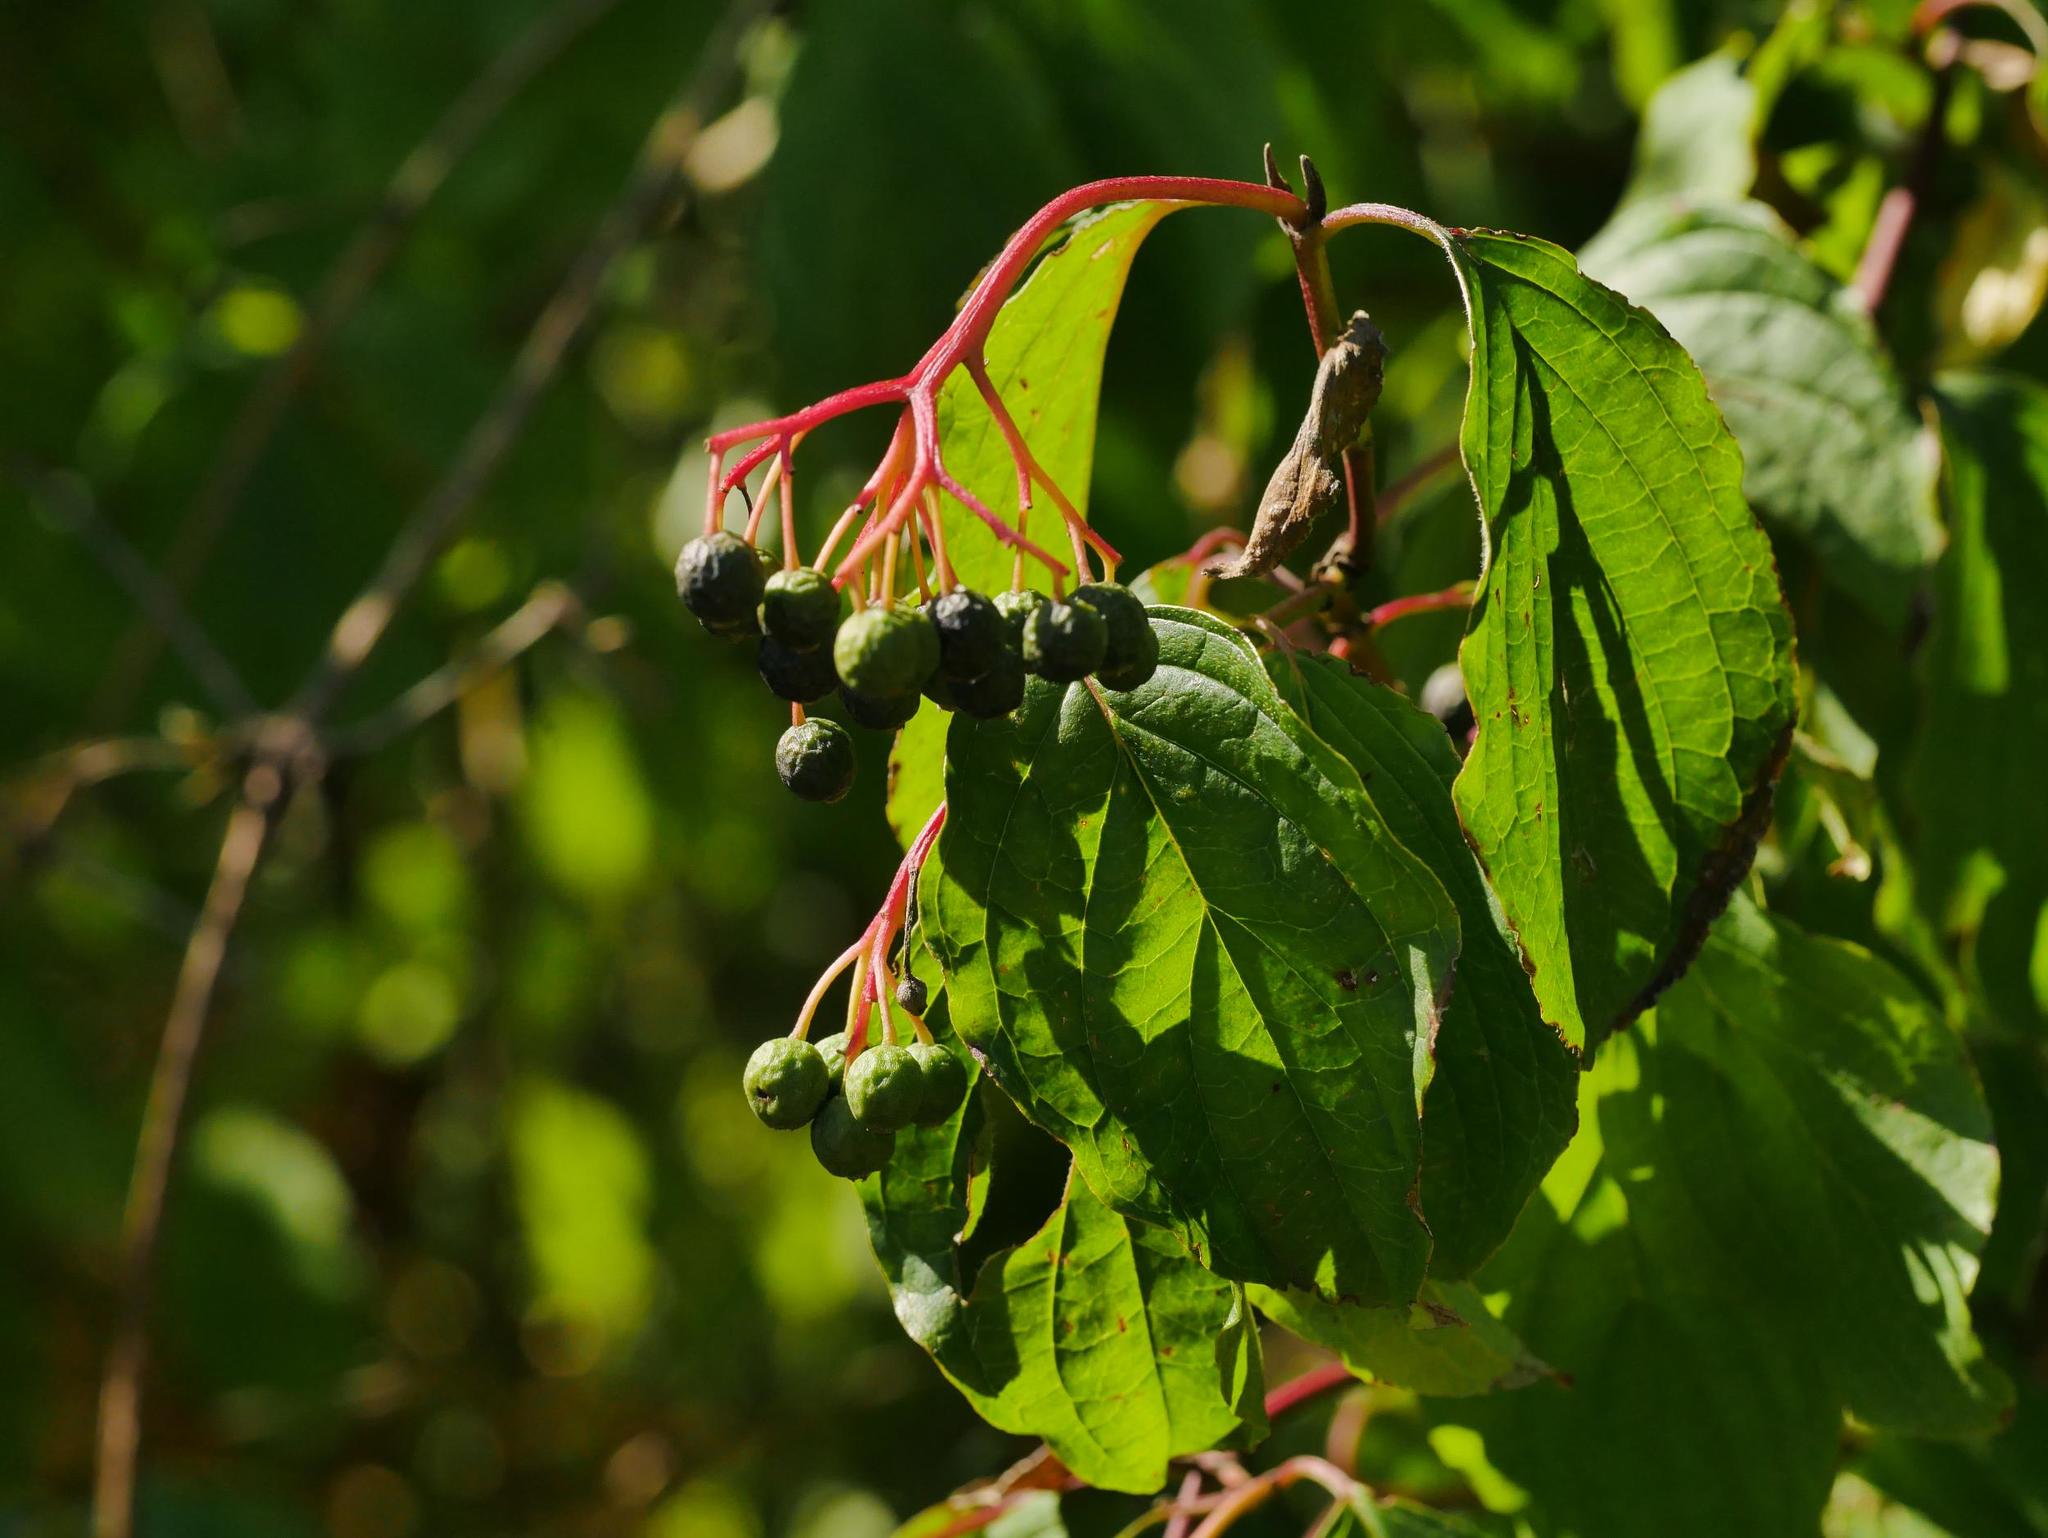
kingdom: Plantae
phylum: Tracheophyta
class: Magnoliopsida
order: Cornales
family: Cornaceae
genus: Cornus
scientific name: Cornus sanguinea
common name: Dogwood
